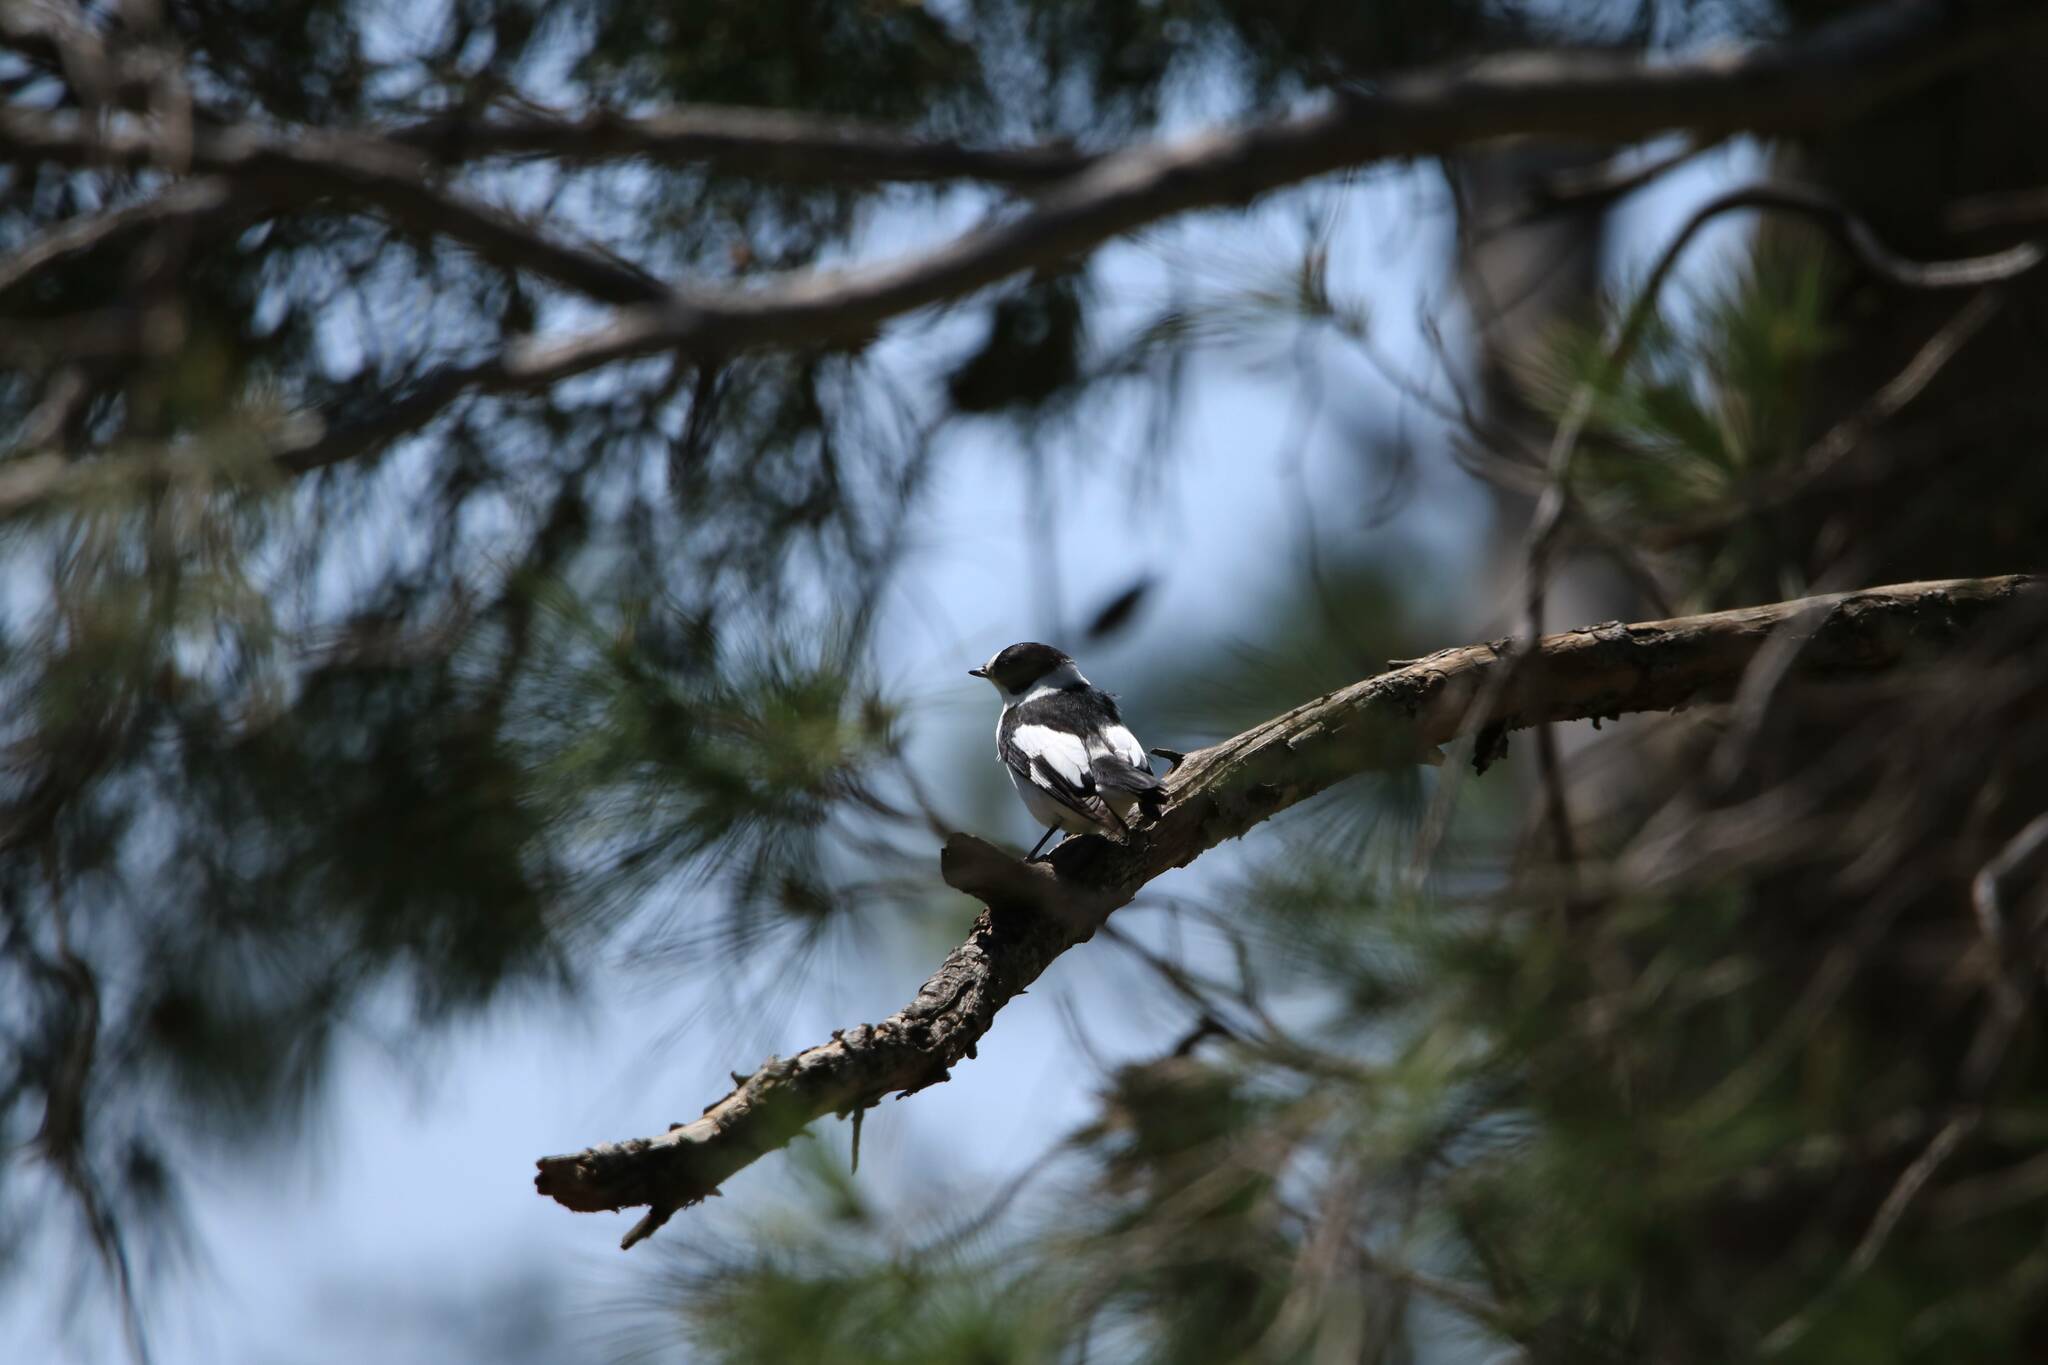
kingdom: Animalia
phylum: Chordata
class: Aves
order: Passeriformes
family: Muscicapidae
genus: Ficedula
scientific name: Ficedula albicollis
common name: Collared flycatcher
